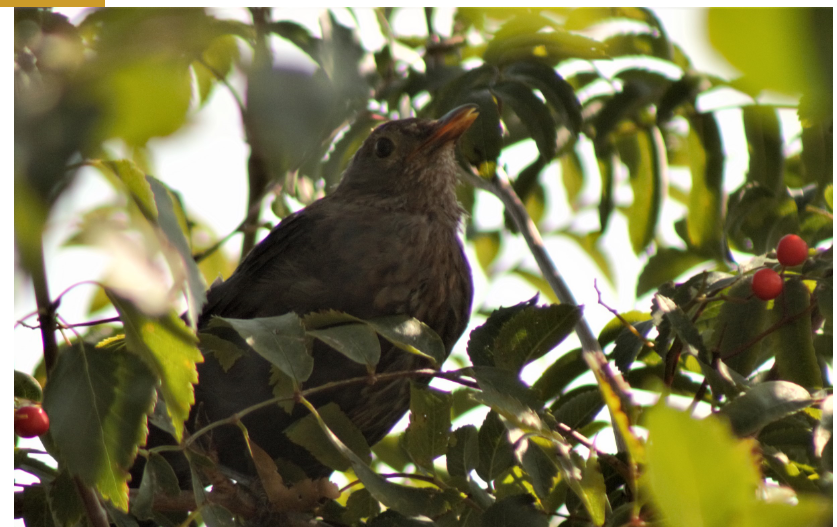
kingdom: Animalia
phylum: Chordata
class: Aves
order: Passeriformes
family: Turdidae
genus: Turdus
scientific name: Turdus merula
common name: Common blackbird
